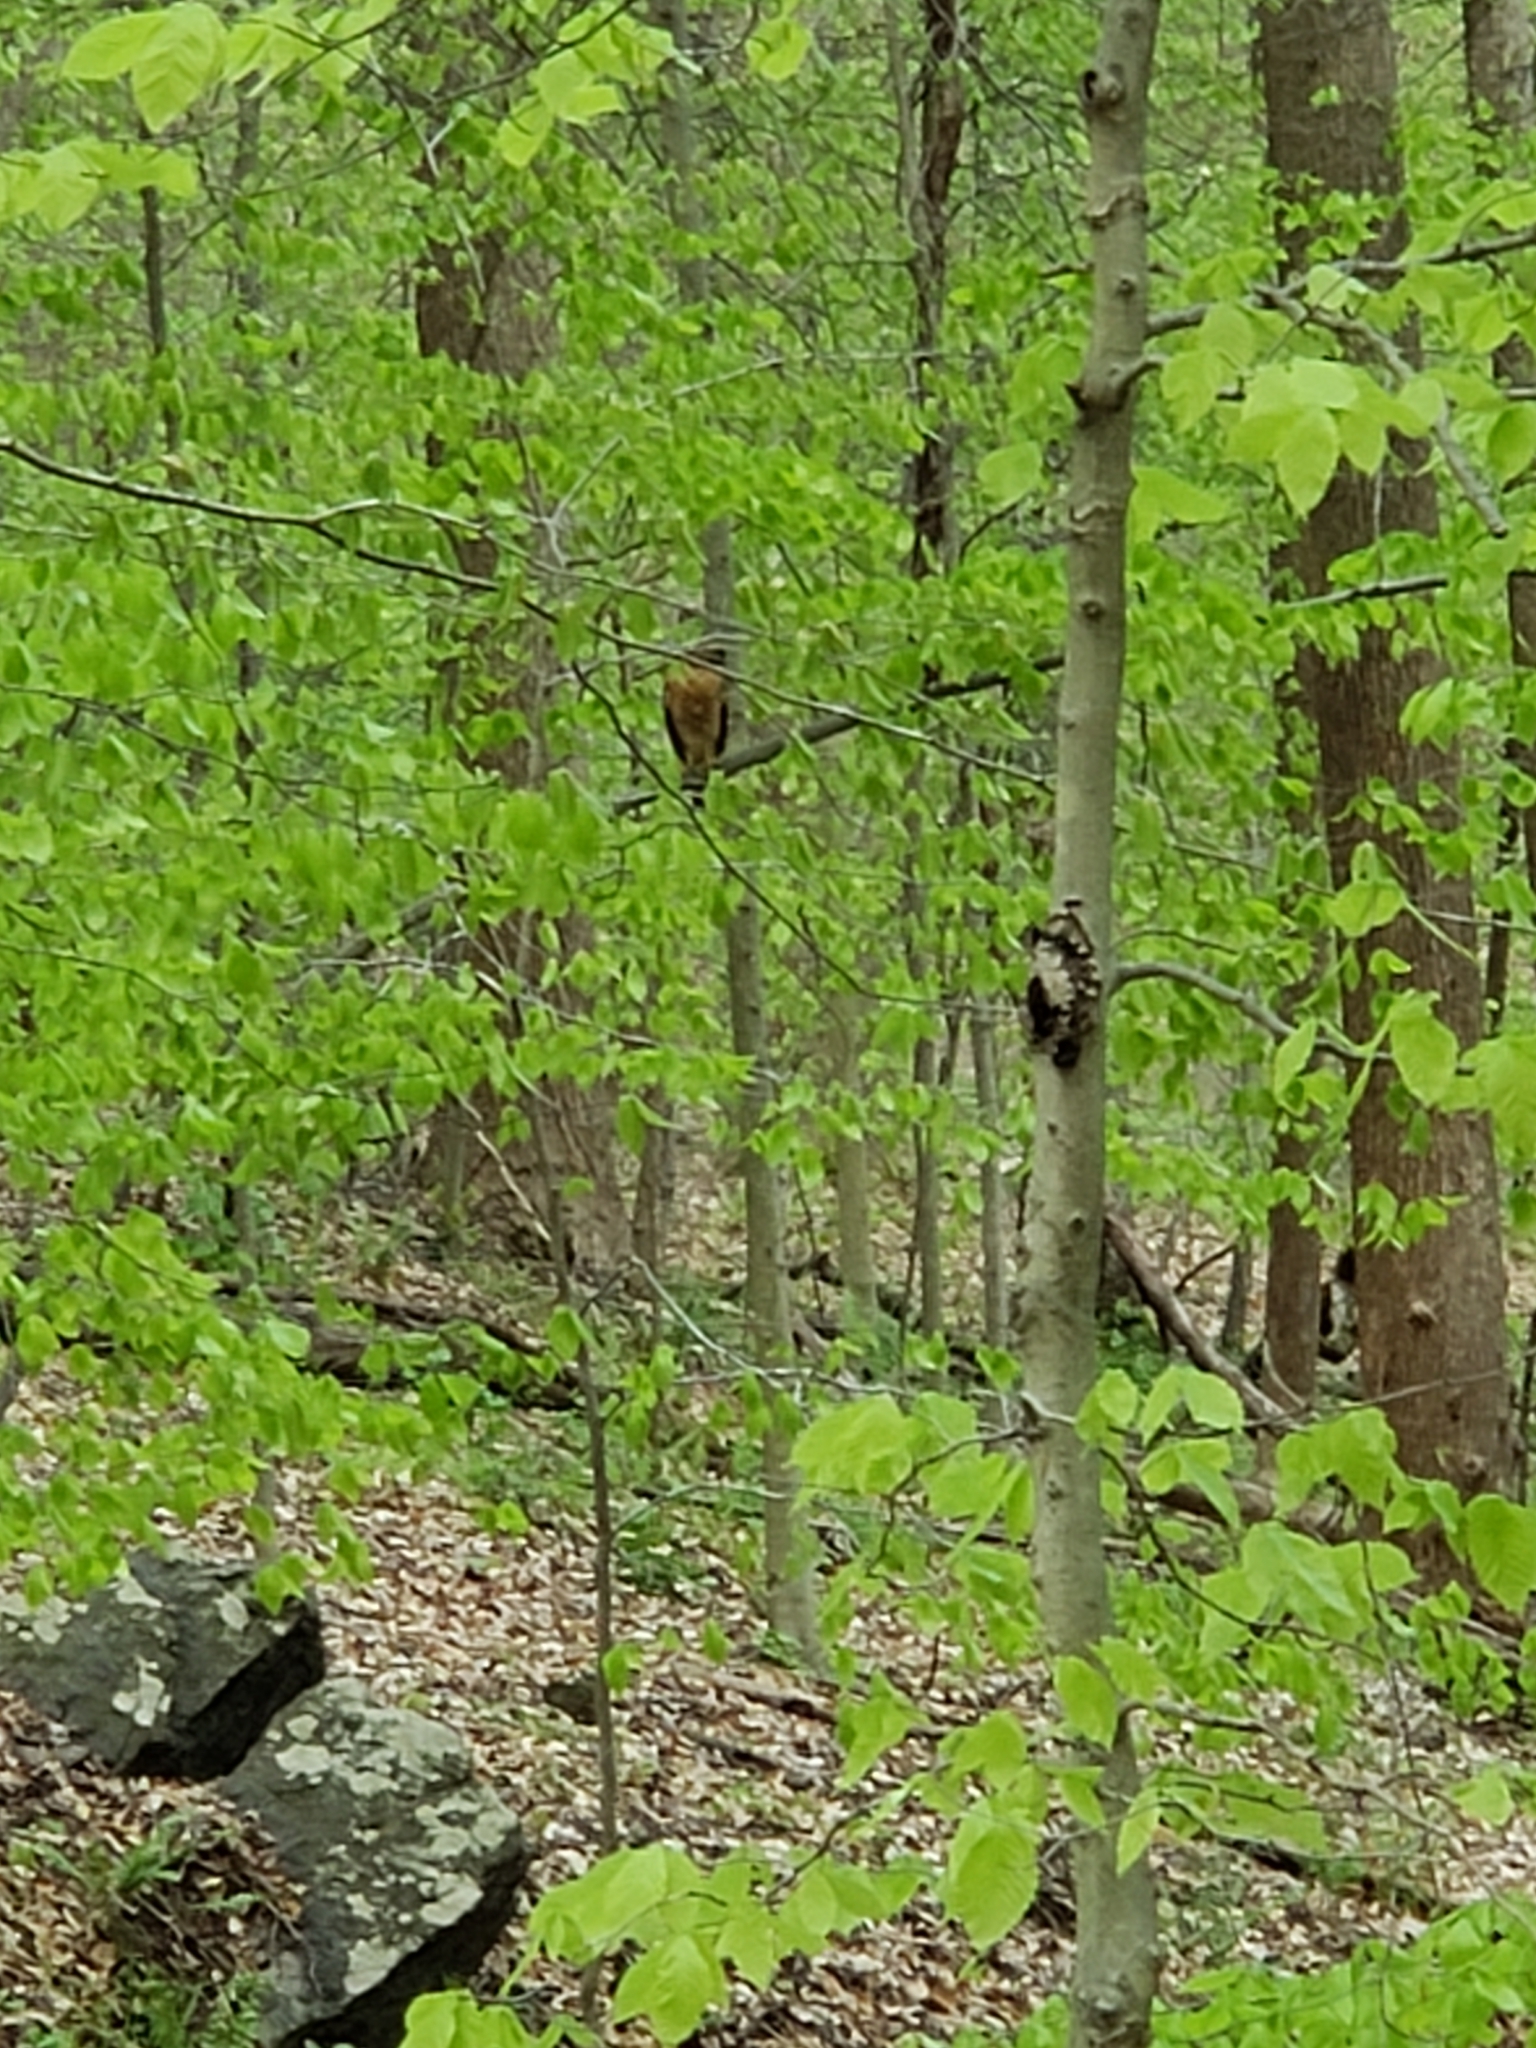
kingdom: Animalia
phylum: Chordata
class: Aves
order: Accipitriformes
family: Accipitridae
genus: Buteo
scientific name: Buteo lineatus
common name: Red-shouldered hawk
